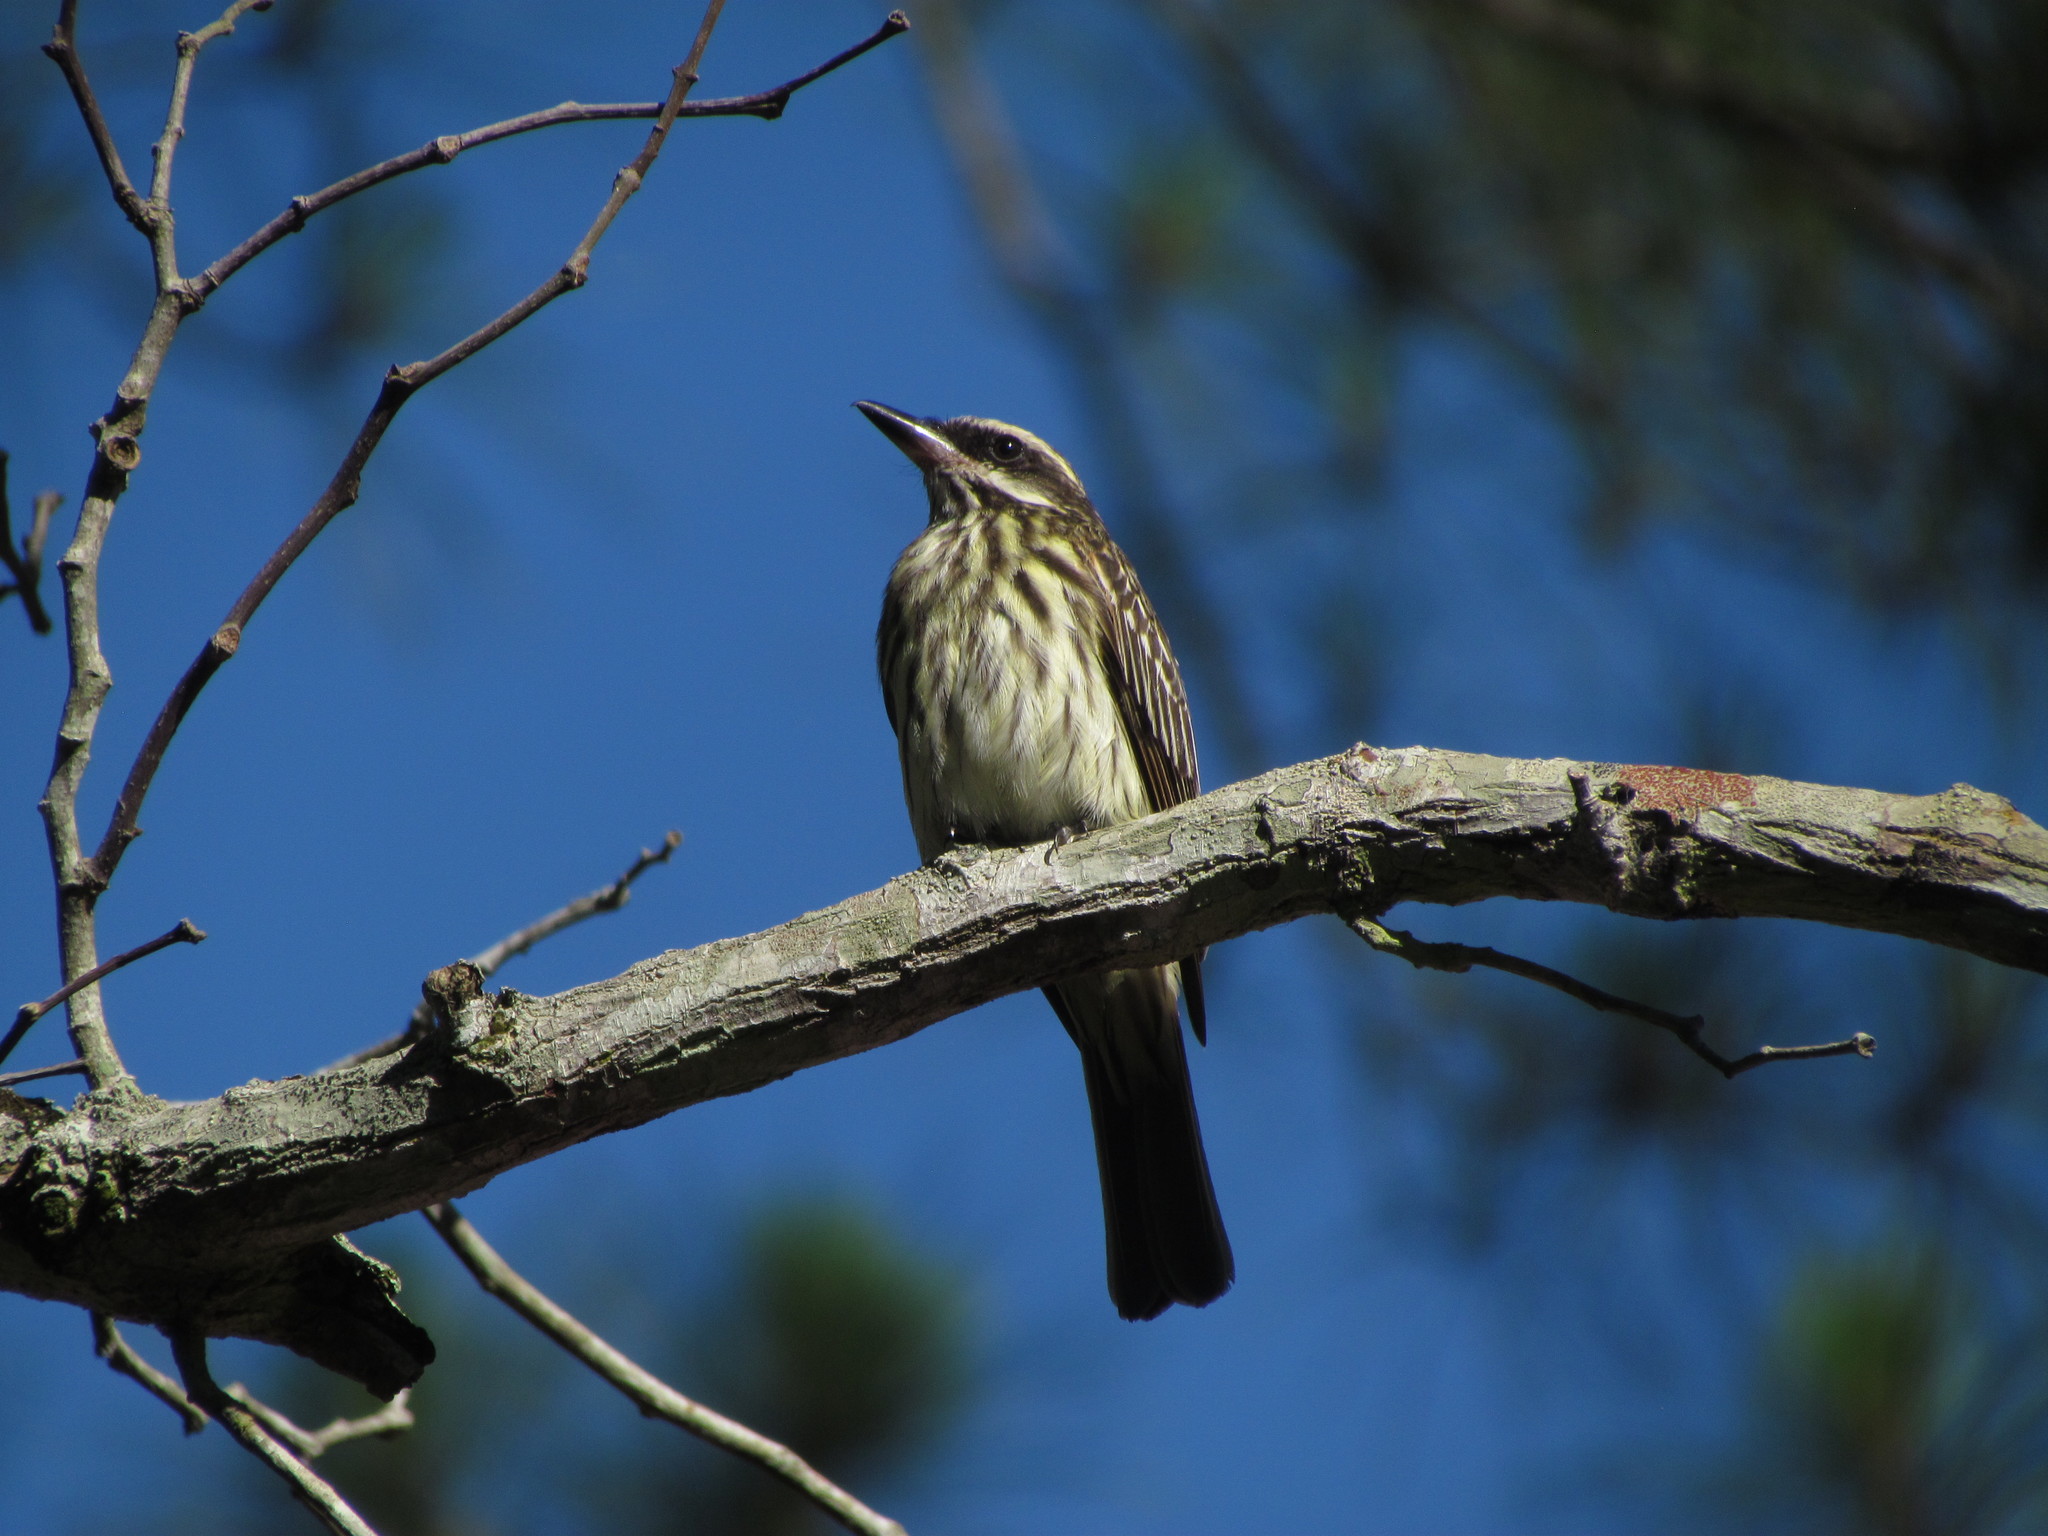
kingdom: Animalia
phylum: Chordata
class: Aves
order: Passeriformes
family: Tyrannidae
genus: Myiodynastes
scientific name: Myiodynastes maculatus
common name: Streaked flycatcher
